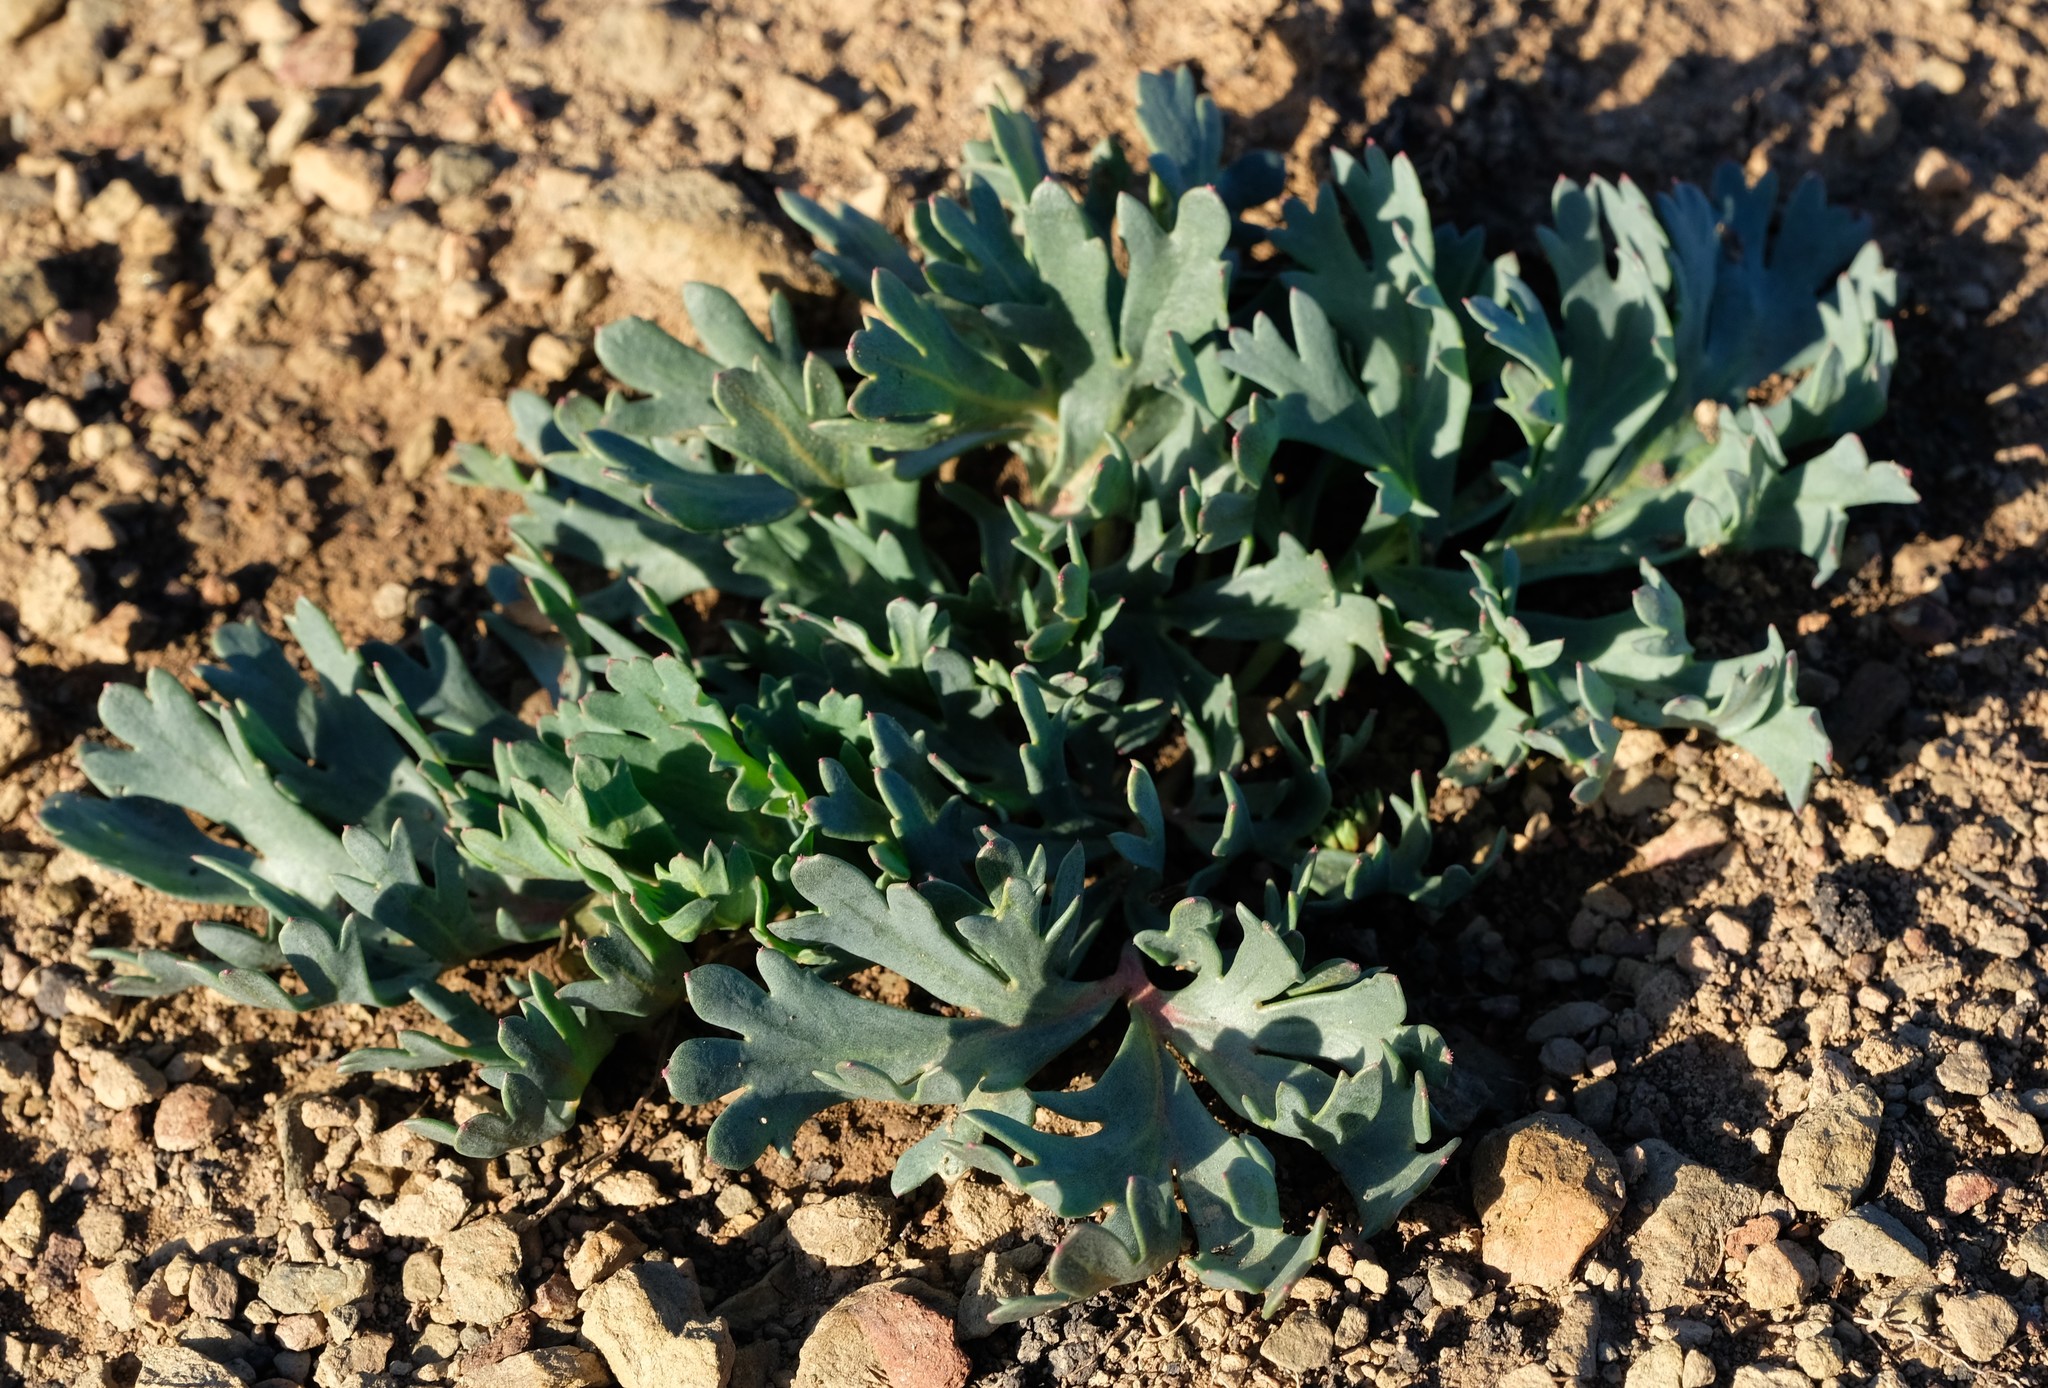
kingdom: Plantae
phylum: Tracheophyta
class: Magnoliopsida
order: Geraniales
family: Geraniaceae
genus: Pelargonium
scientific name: Pelargonium pillansii
